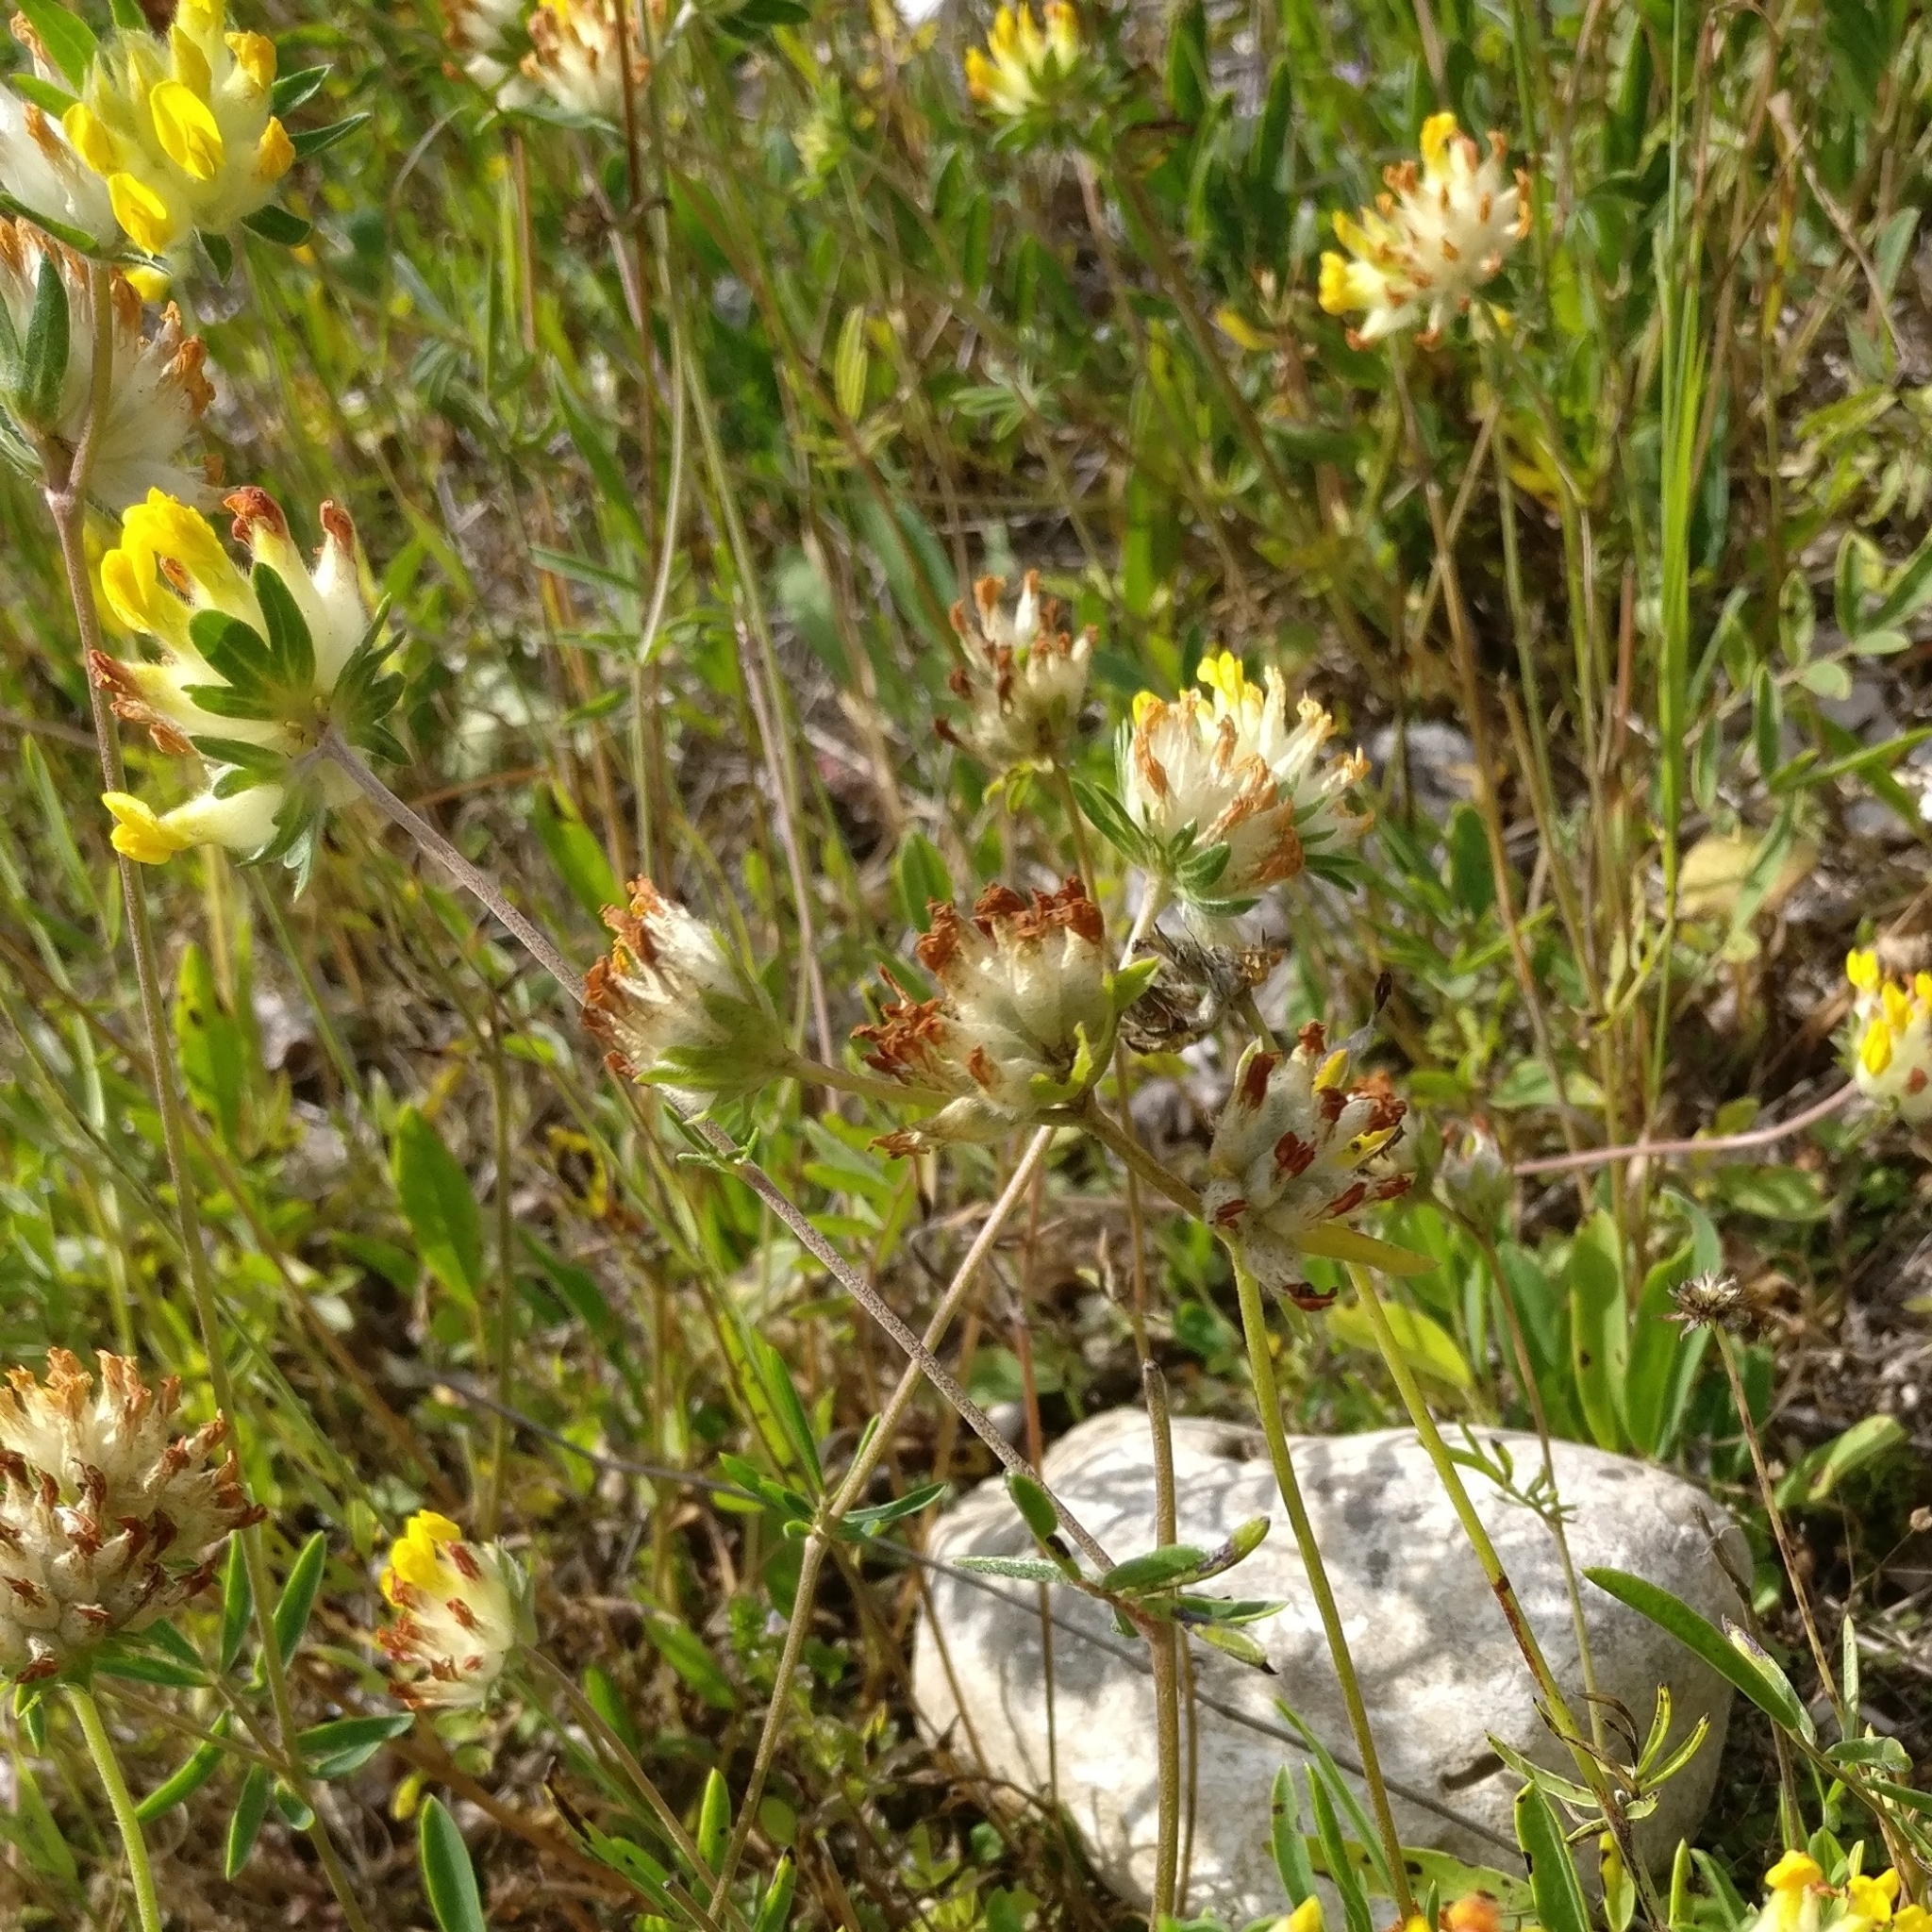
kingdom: Plantae
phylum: Tracheophyta
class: Magnoliopsida
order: Fabales
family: Fabaceae
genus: Anthyllis
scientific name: Anthyllis vulneraria
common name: Kidney vetch
